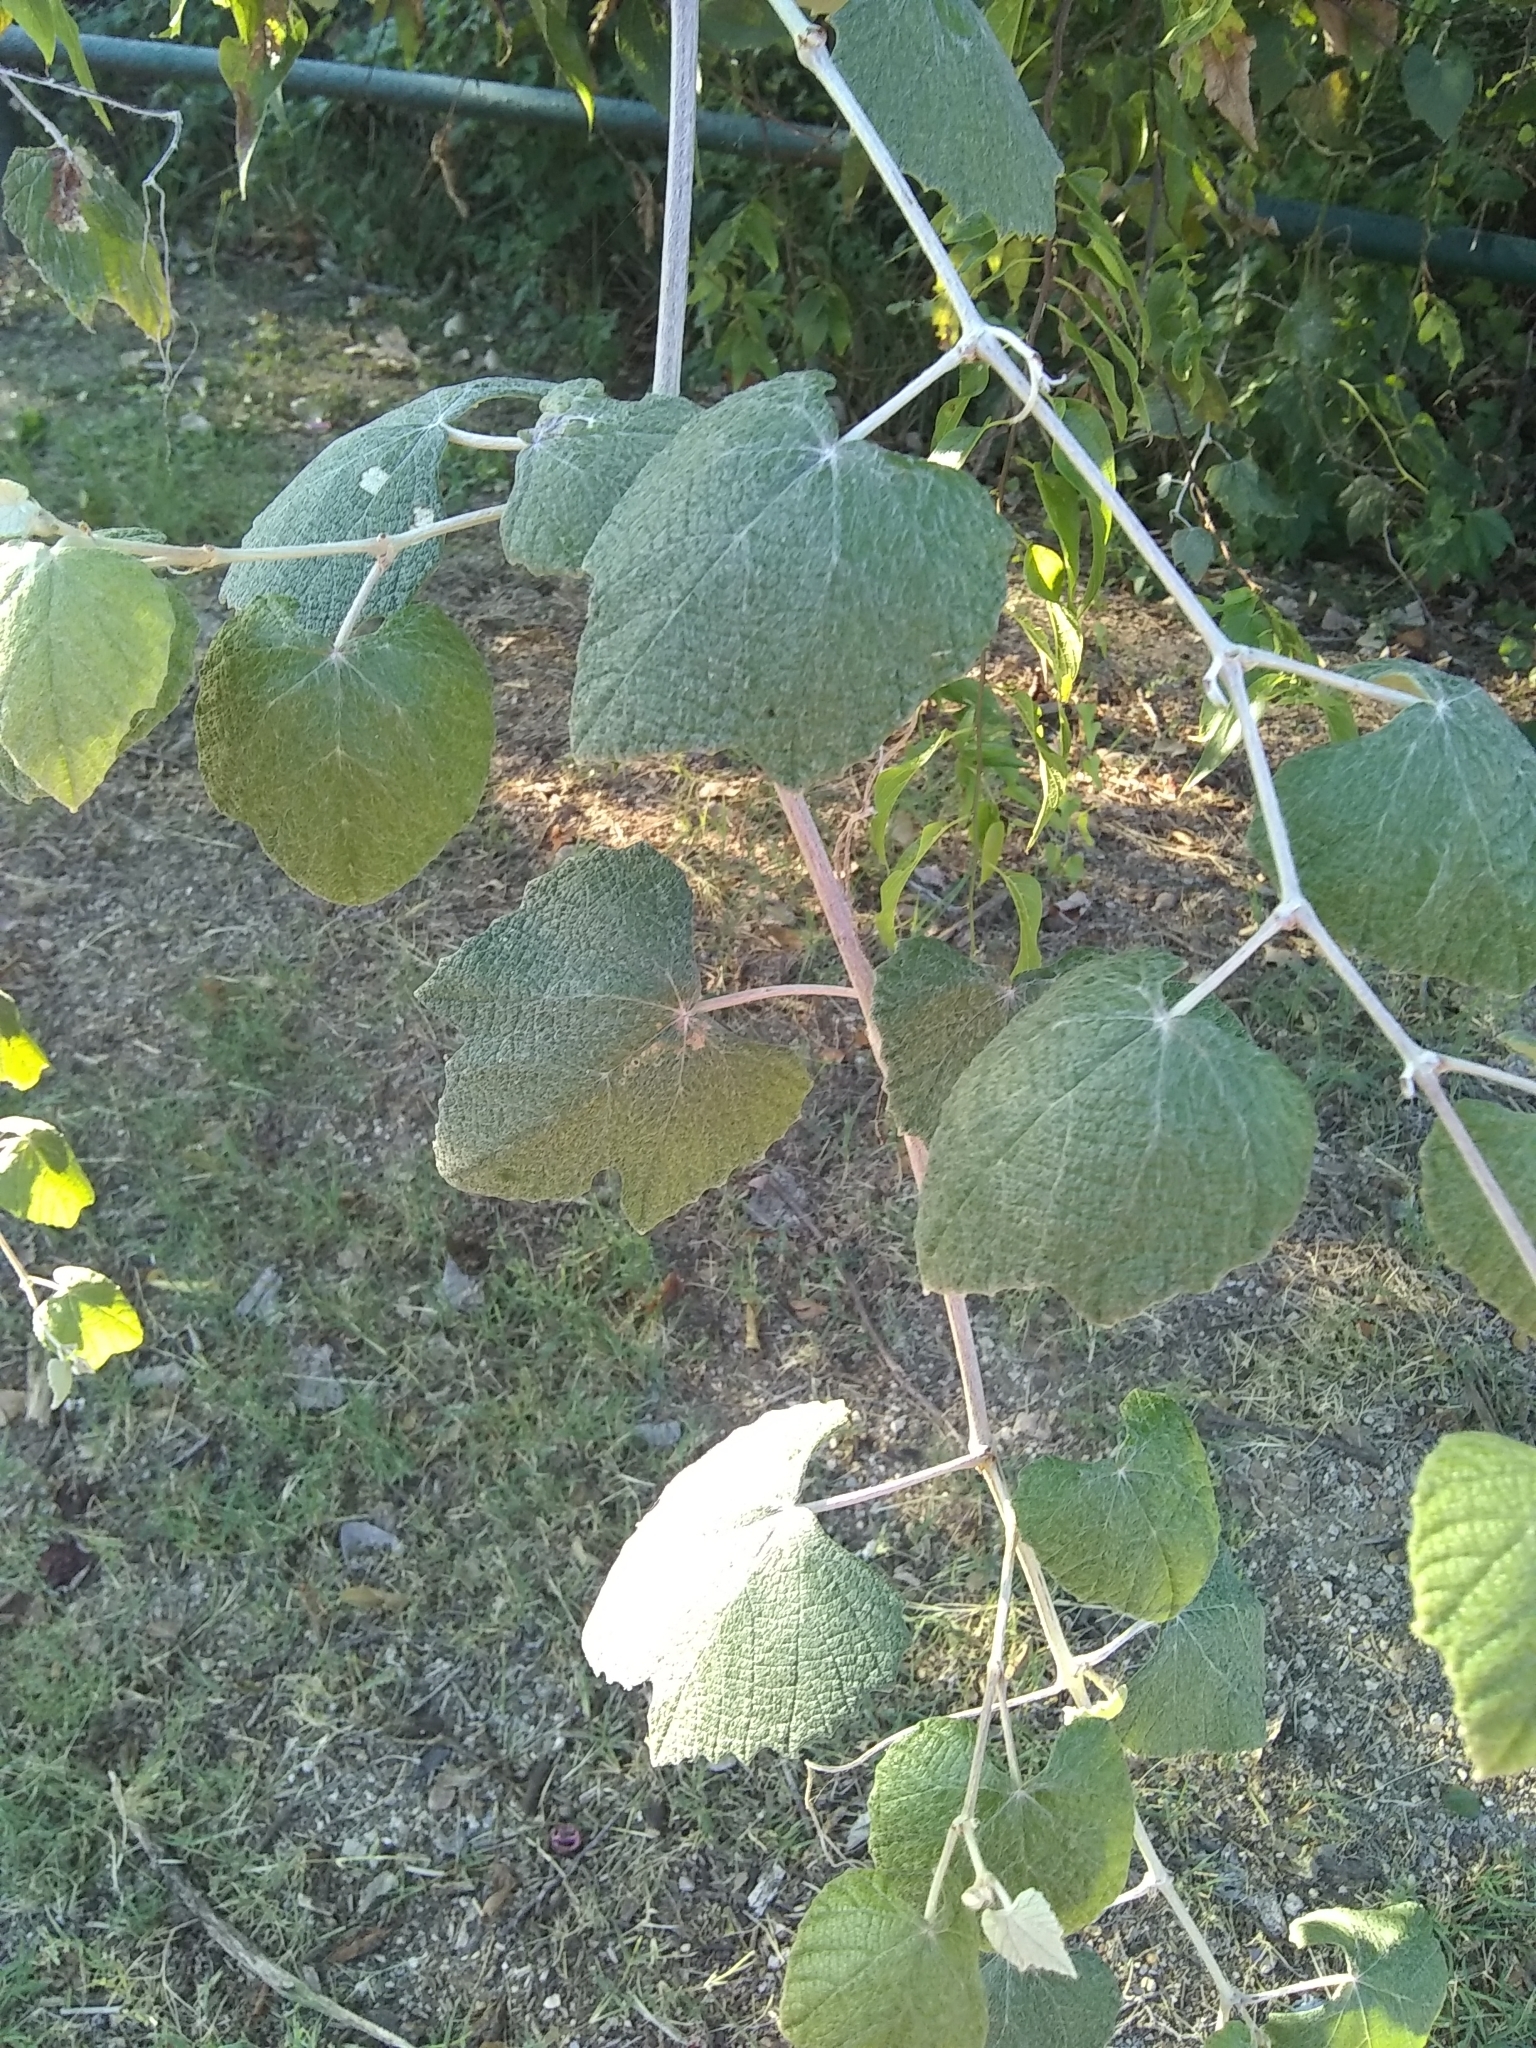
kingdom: Plantae
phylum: Tracheophyta
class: Magnoliopsida
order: Vitales
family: Vitaceae
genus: Vitis
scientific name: Vitis mustangensis
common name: Mustang grape
